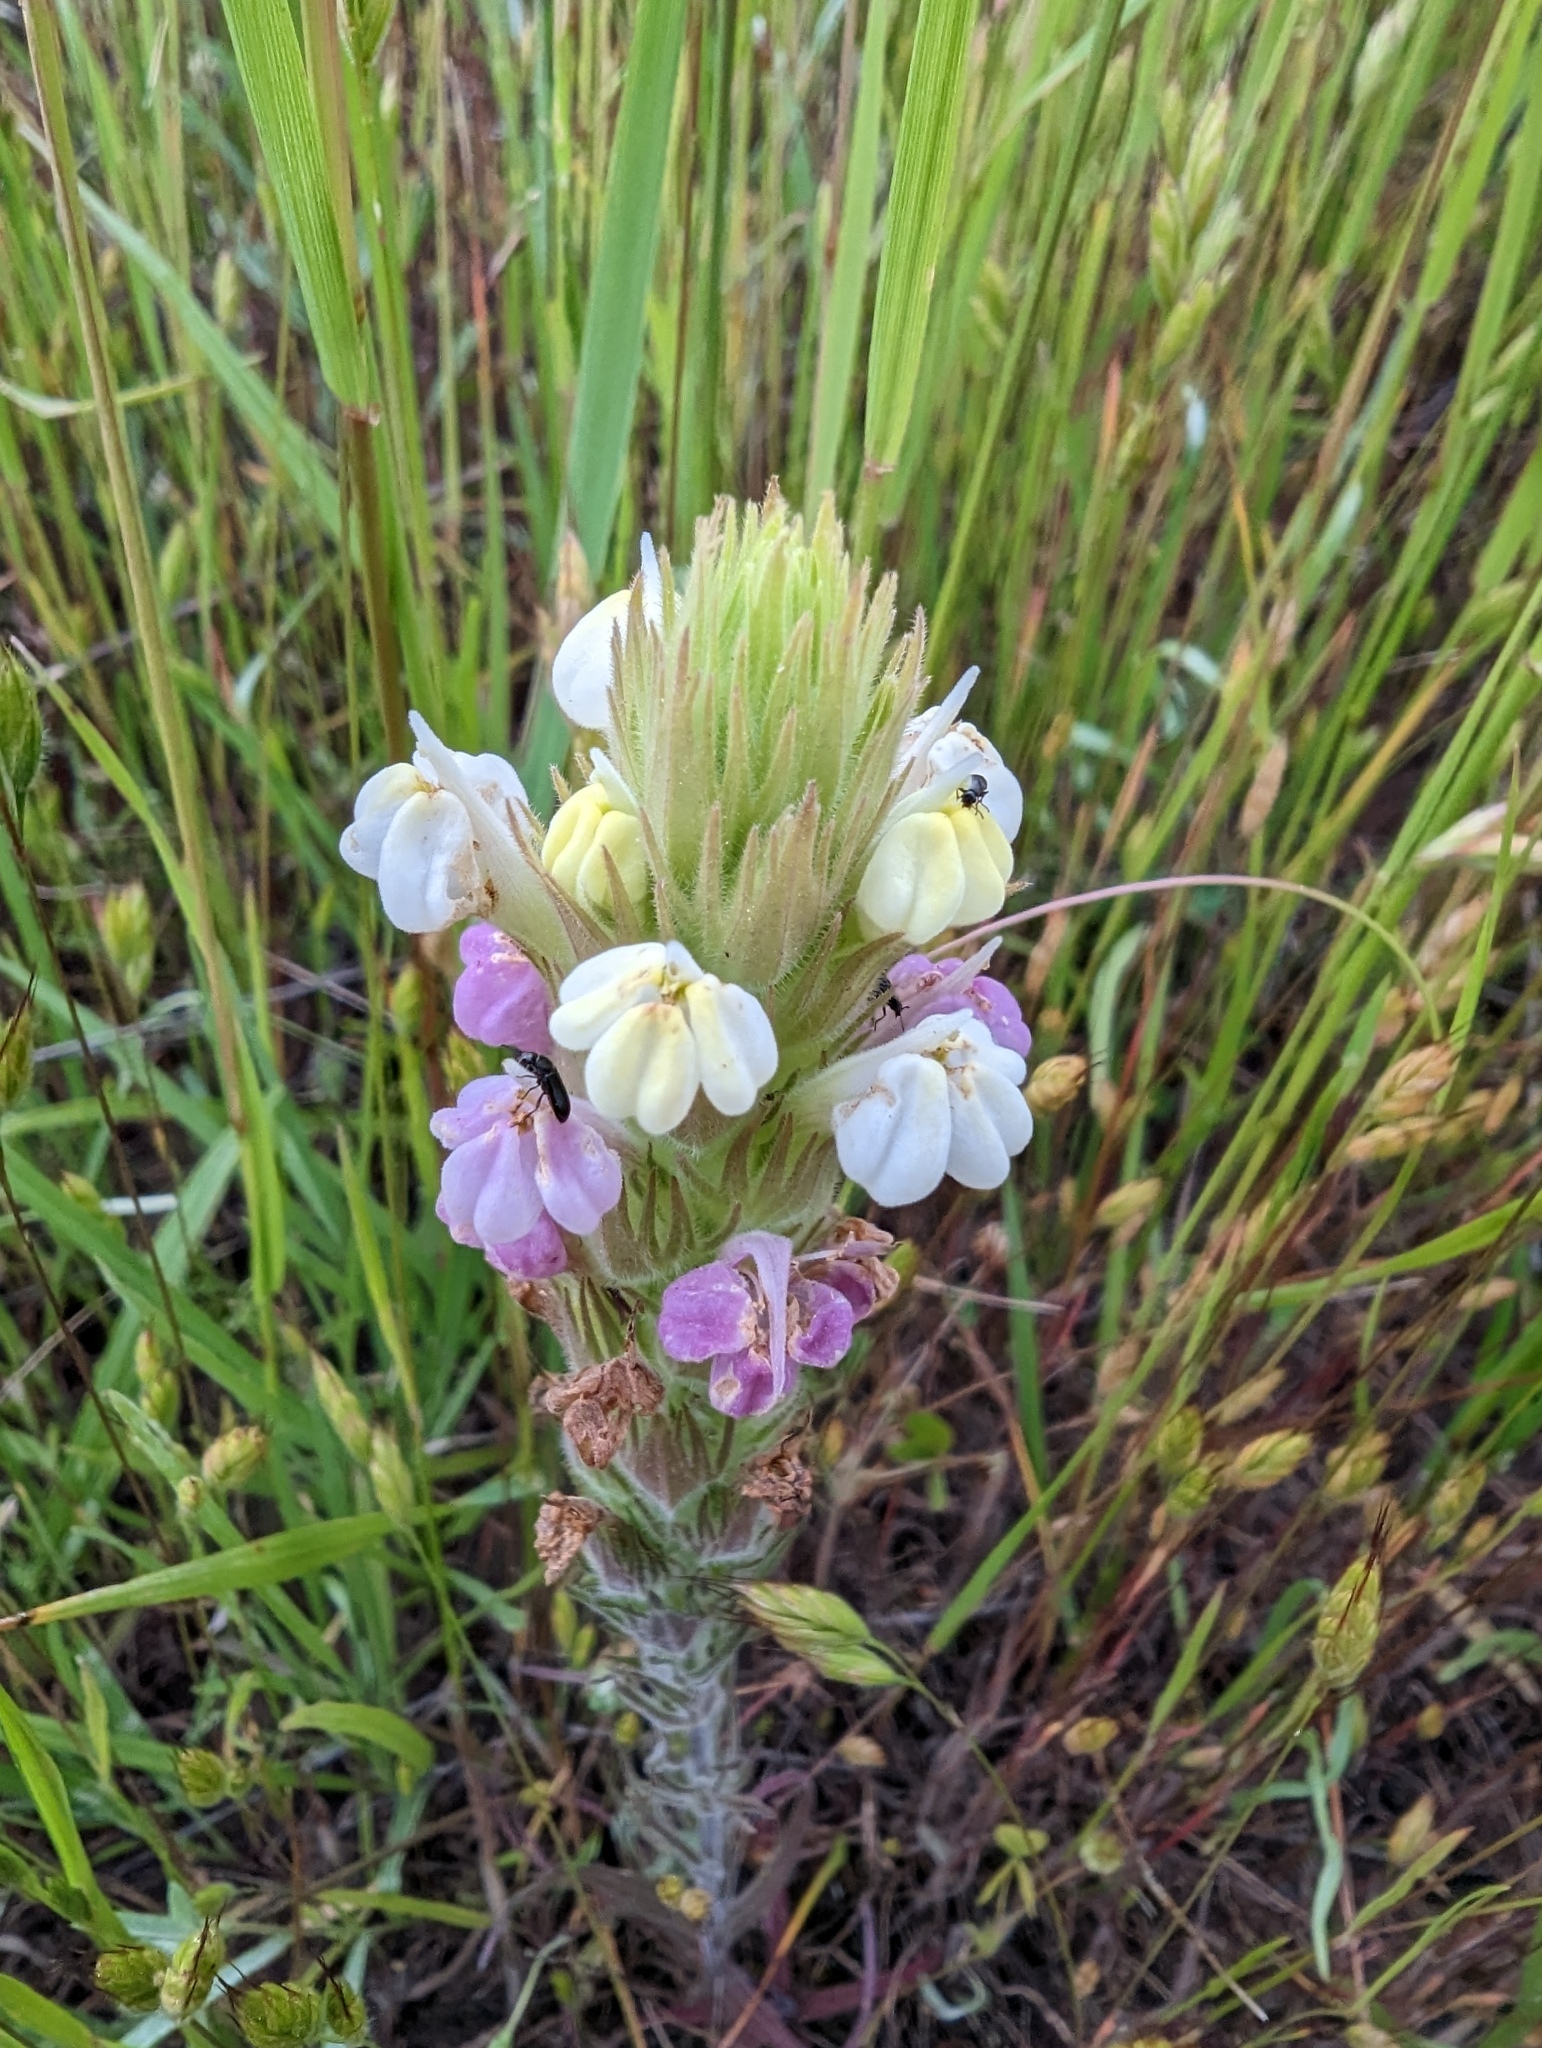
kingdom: Plantae
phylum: Tracheophyta
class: Magnoliopsida
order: Lamiales
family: Orobanchaceae
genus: Castilleja
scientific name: Castilleja rubicundula
